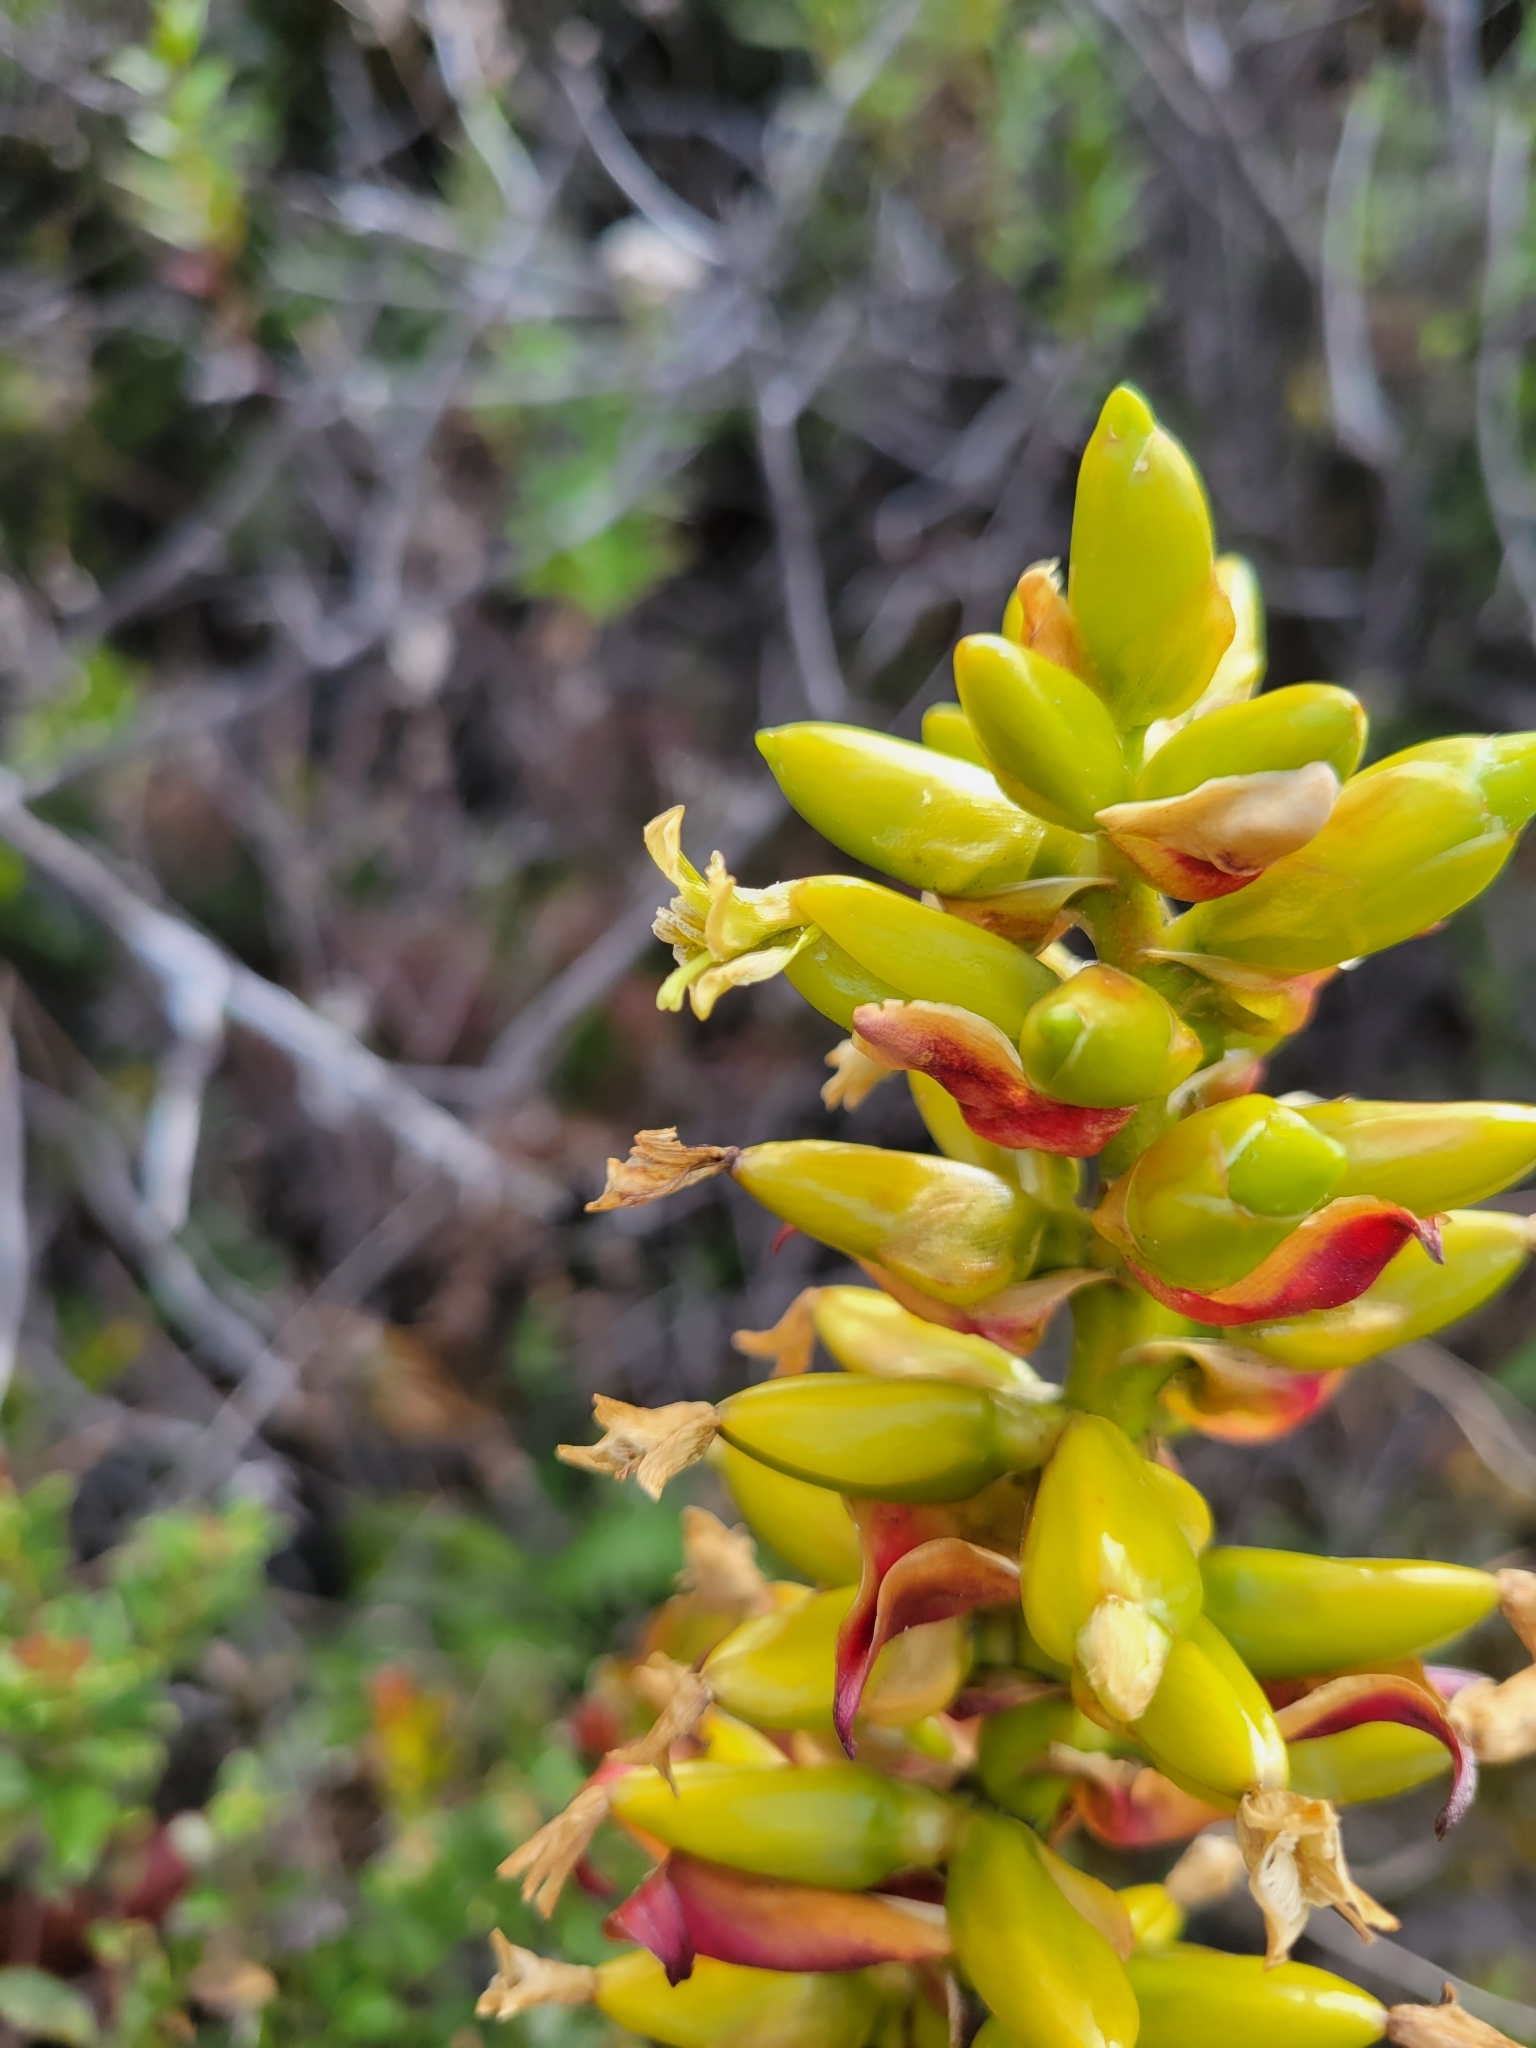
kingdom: Plantae
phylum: Tracheophyta
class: Liliopsida
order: Poales
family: Bromeliaceae
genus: Werauhia
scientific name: Werauhia ororiensis
